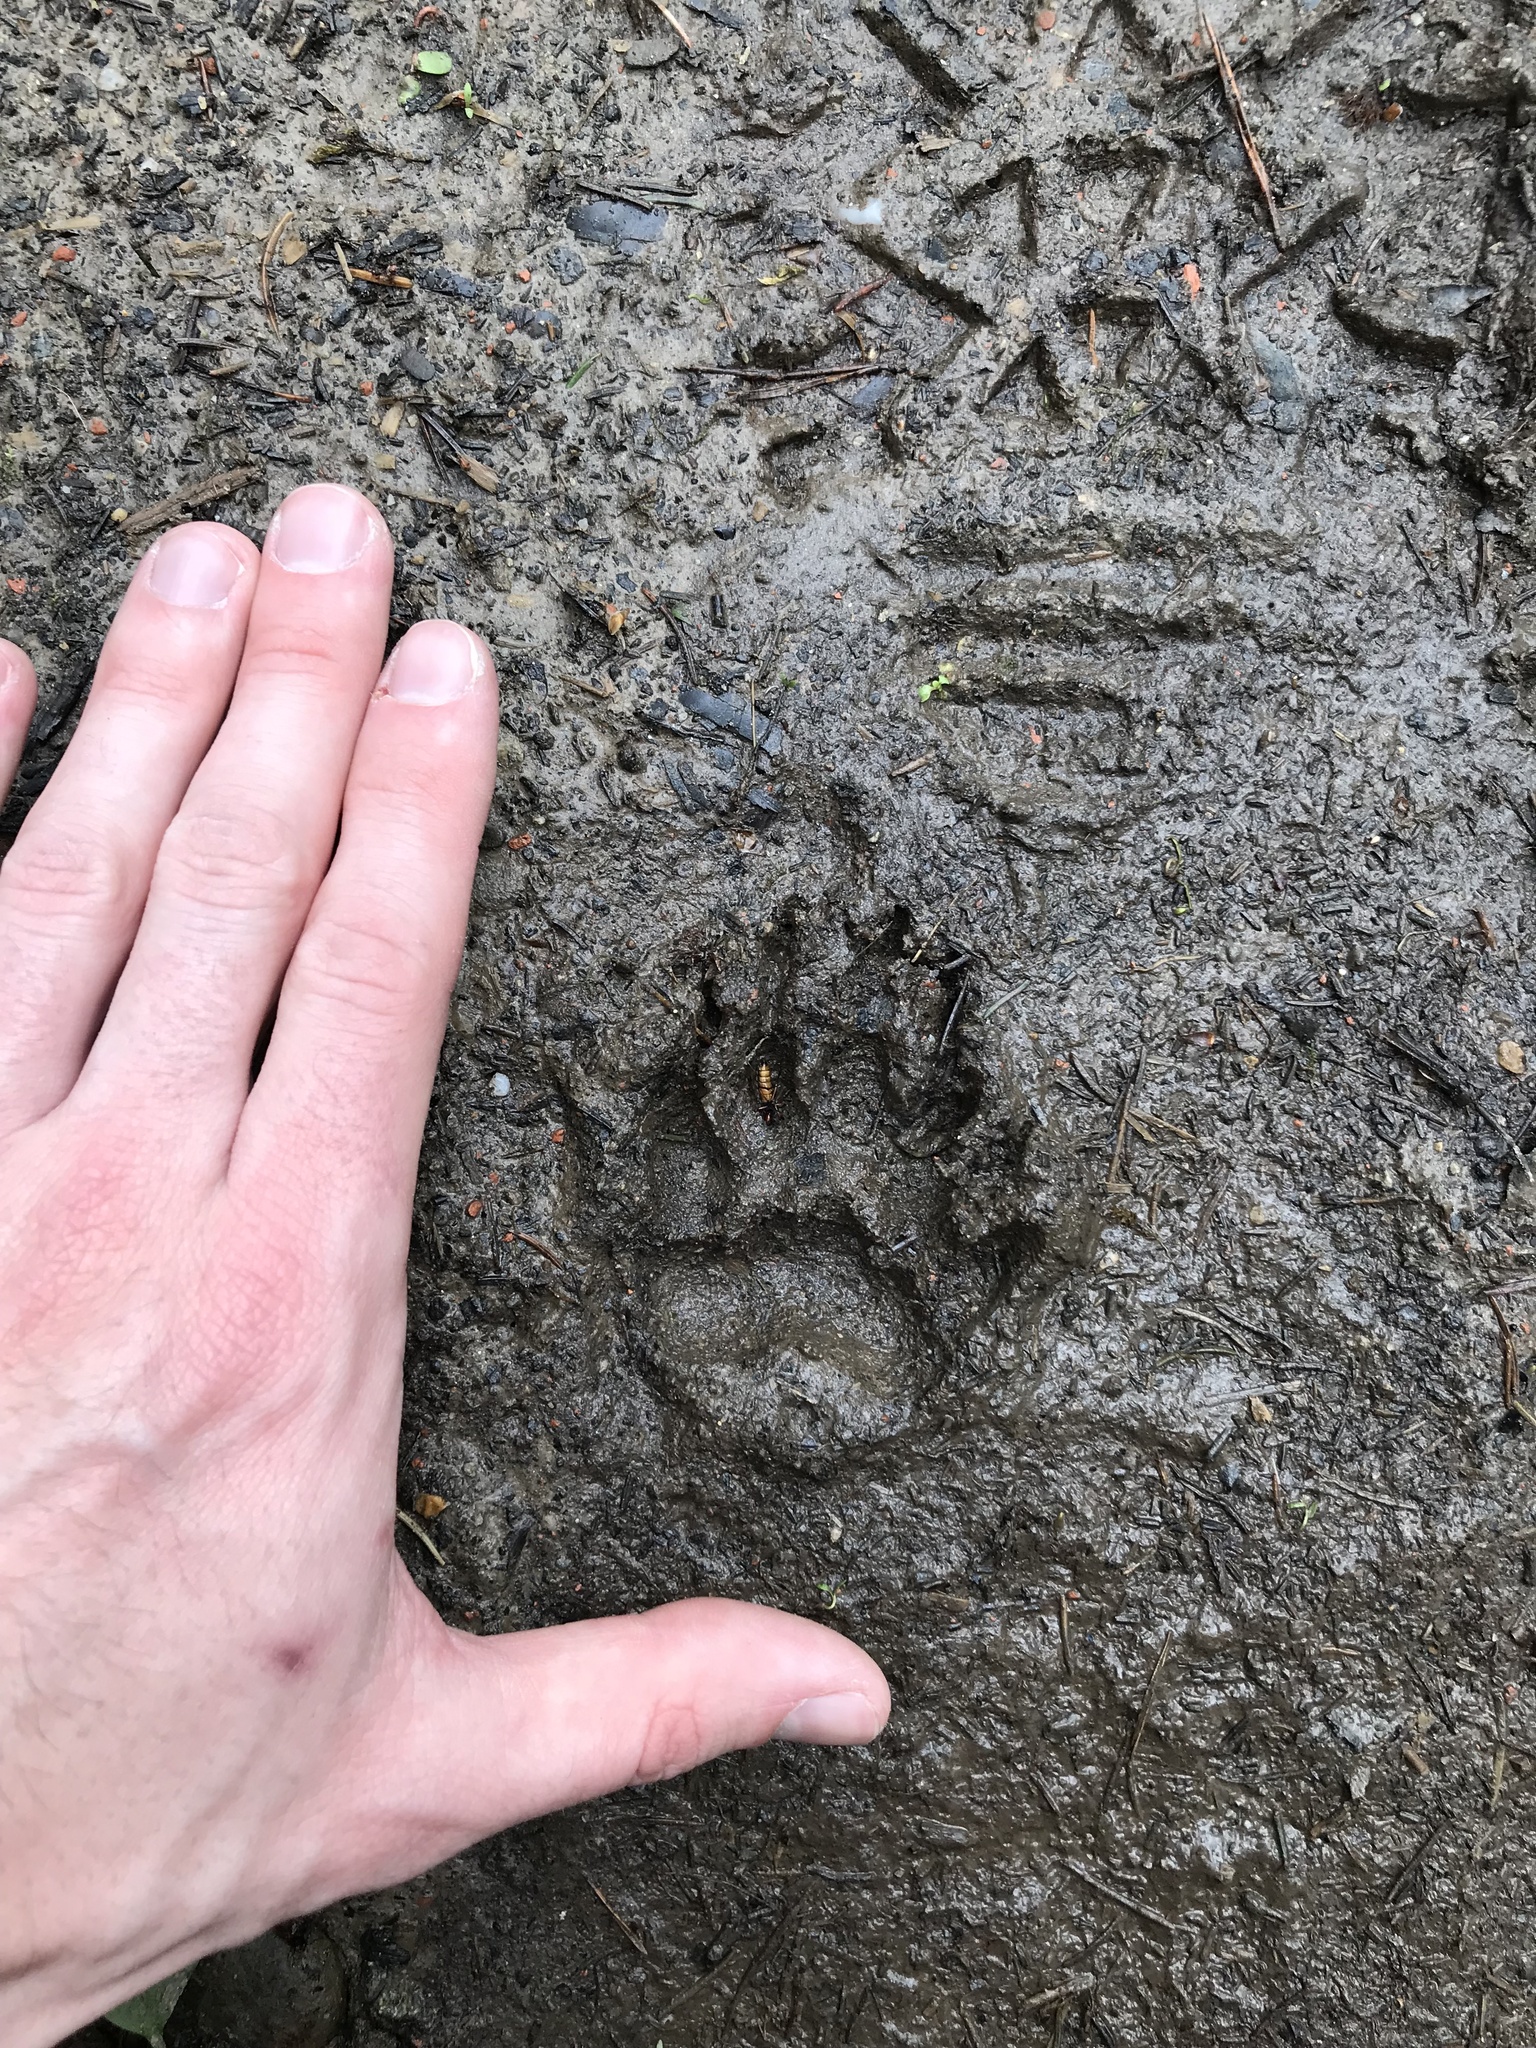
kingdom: Animalia
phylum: Chordata
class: Mammalia
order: Carnivora
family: Mustelidae
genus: Meles
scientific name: Meles meles
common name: Eurasian badger
